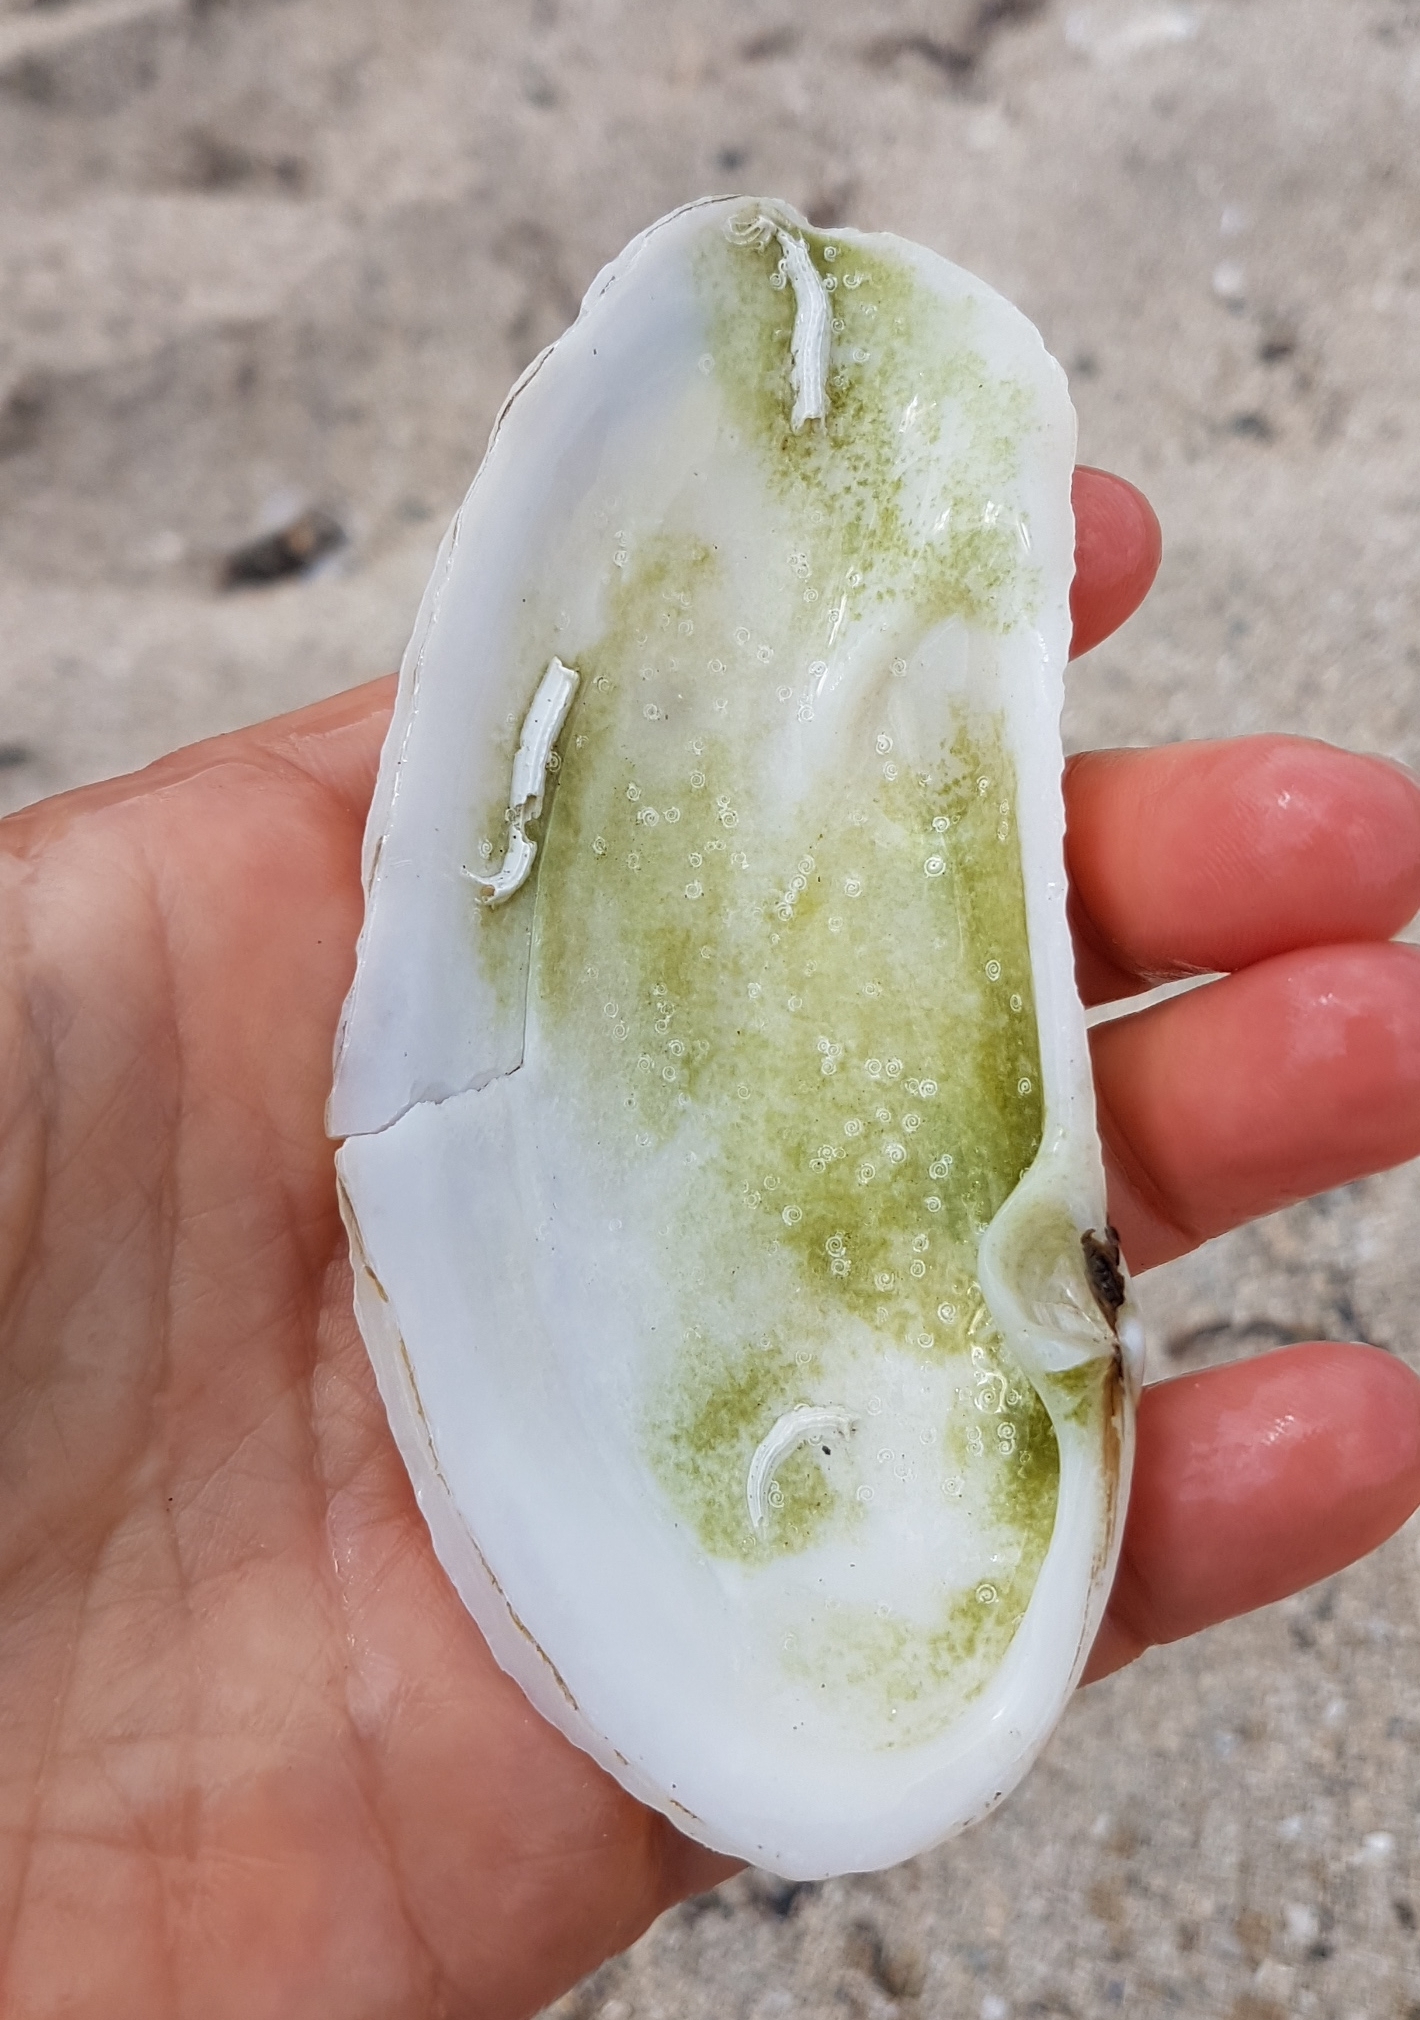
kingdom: Animalia
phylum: Mollusca
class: Bivalvia
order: Venerida
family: Mactridae
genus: Lutraria
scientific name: Lutraria oblonga
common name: Oblong otter clam
